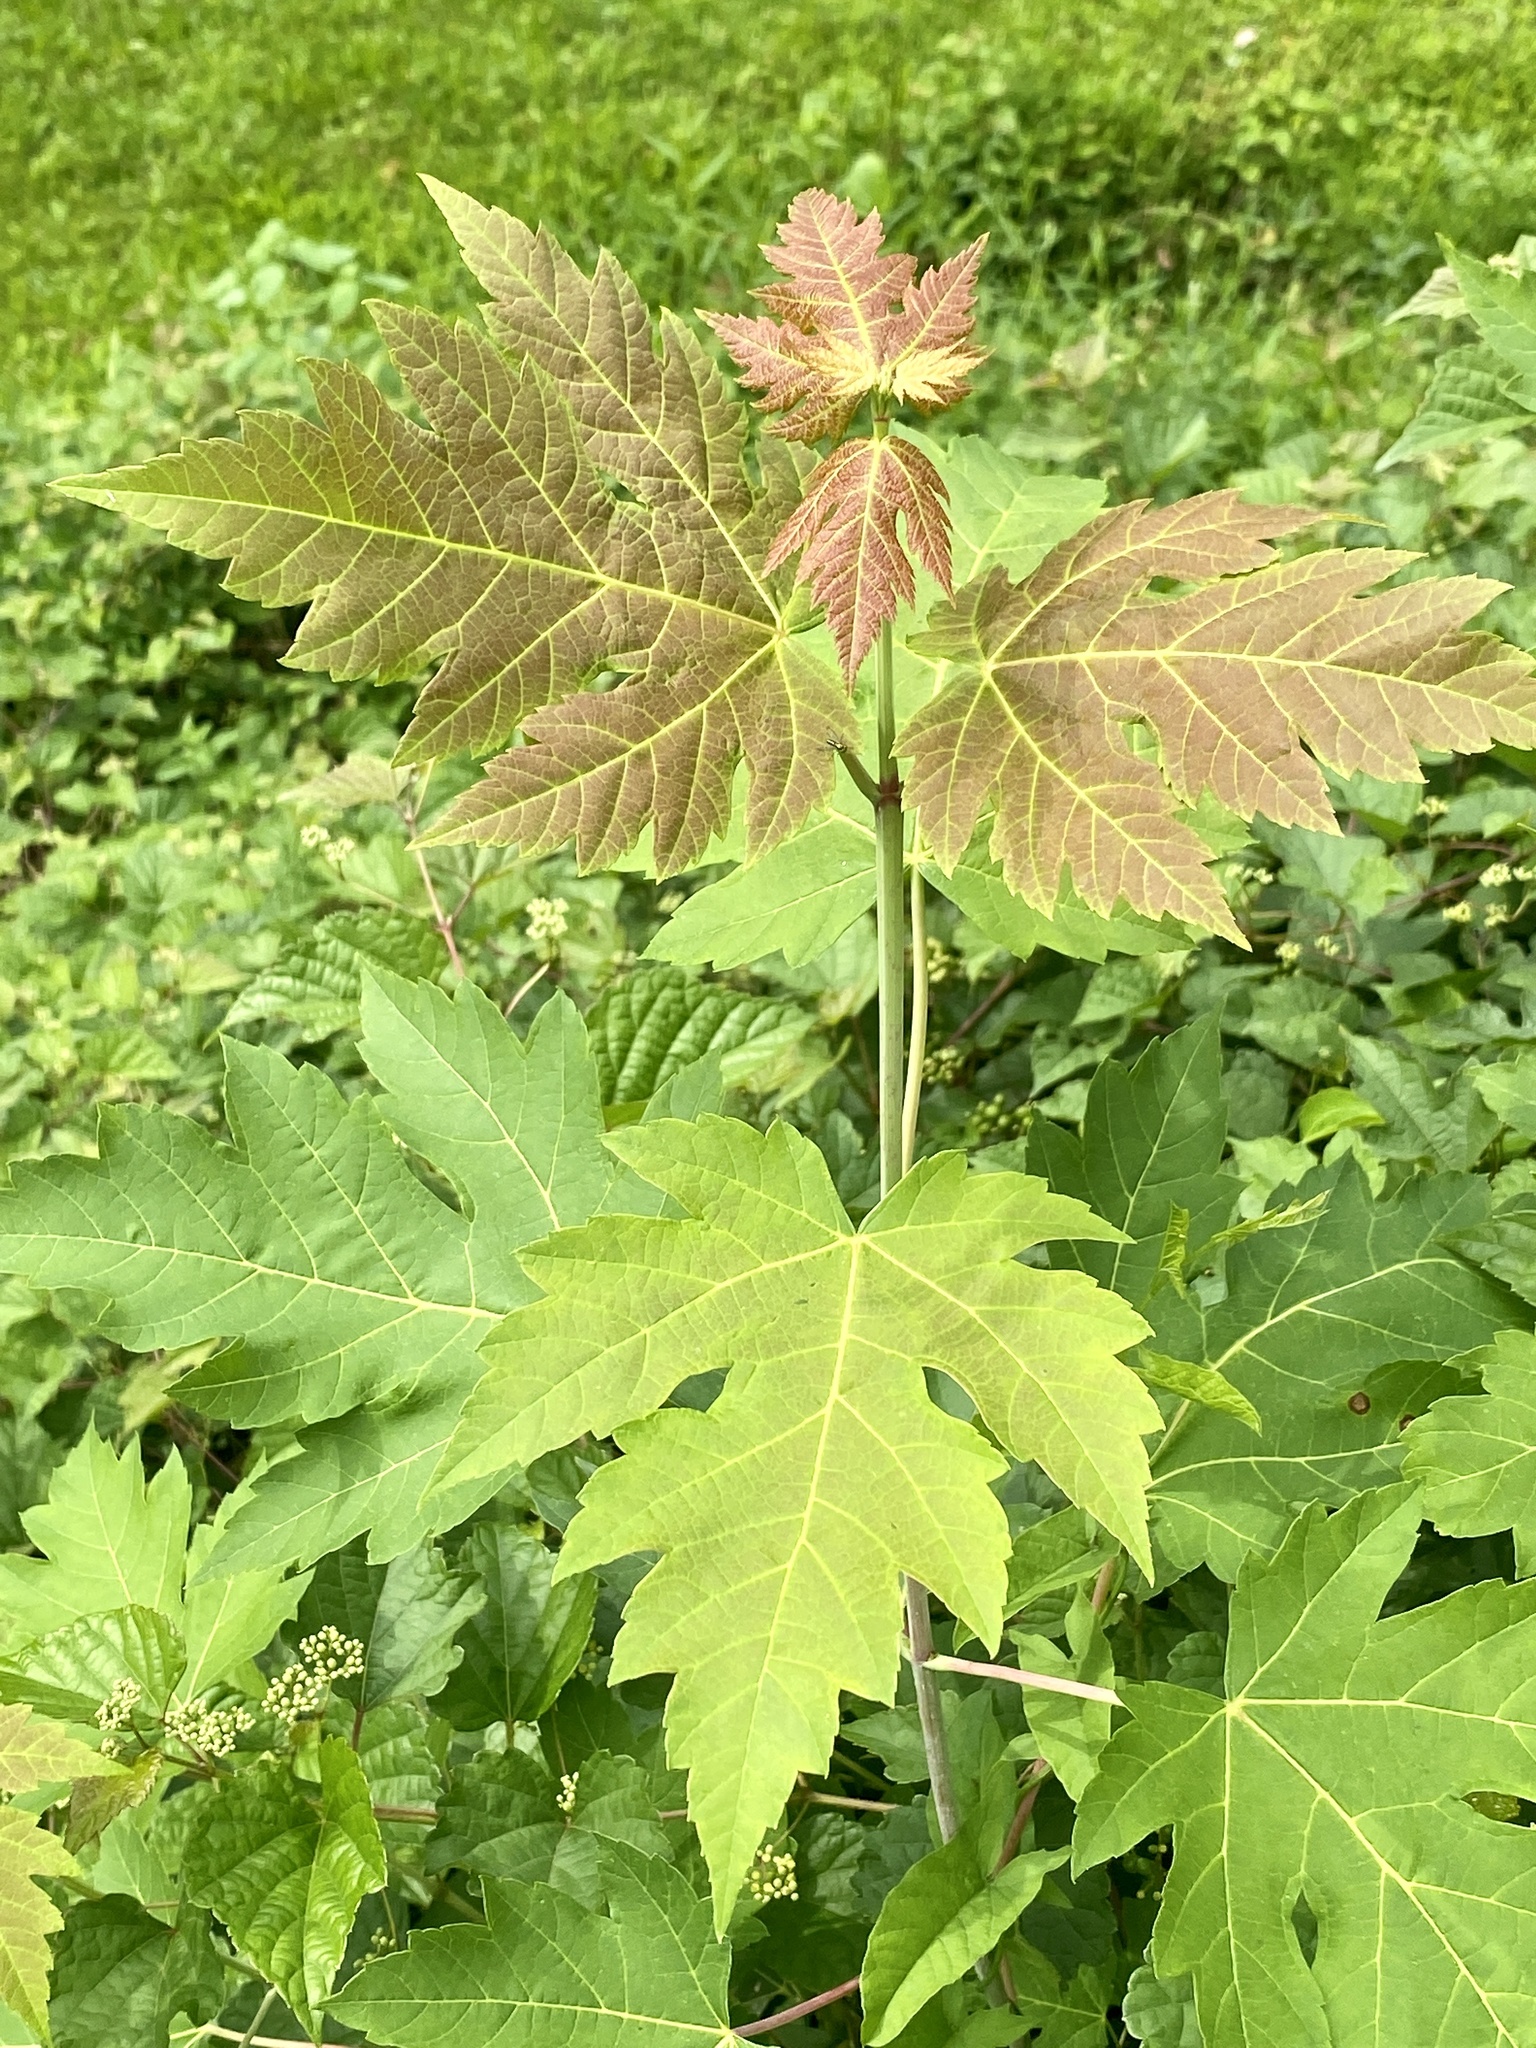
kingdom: Plantae
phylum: Tracheophyta
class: Magnoliopsida
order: Sapindales
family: Sapindaceae
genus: Acer
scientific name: Acer saccharinum
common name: Silver maple
